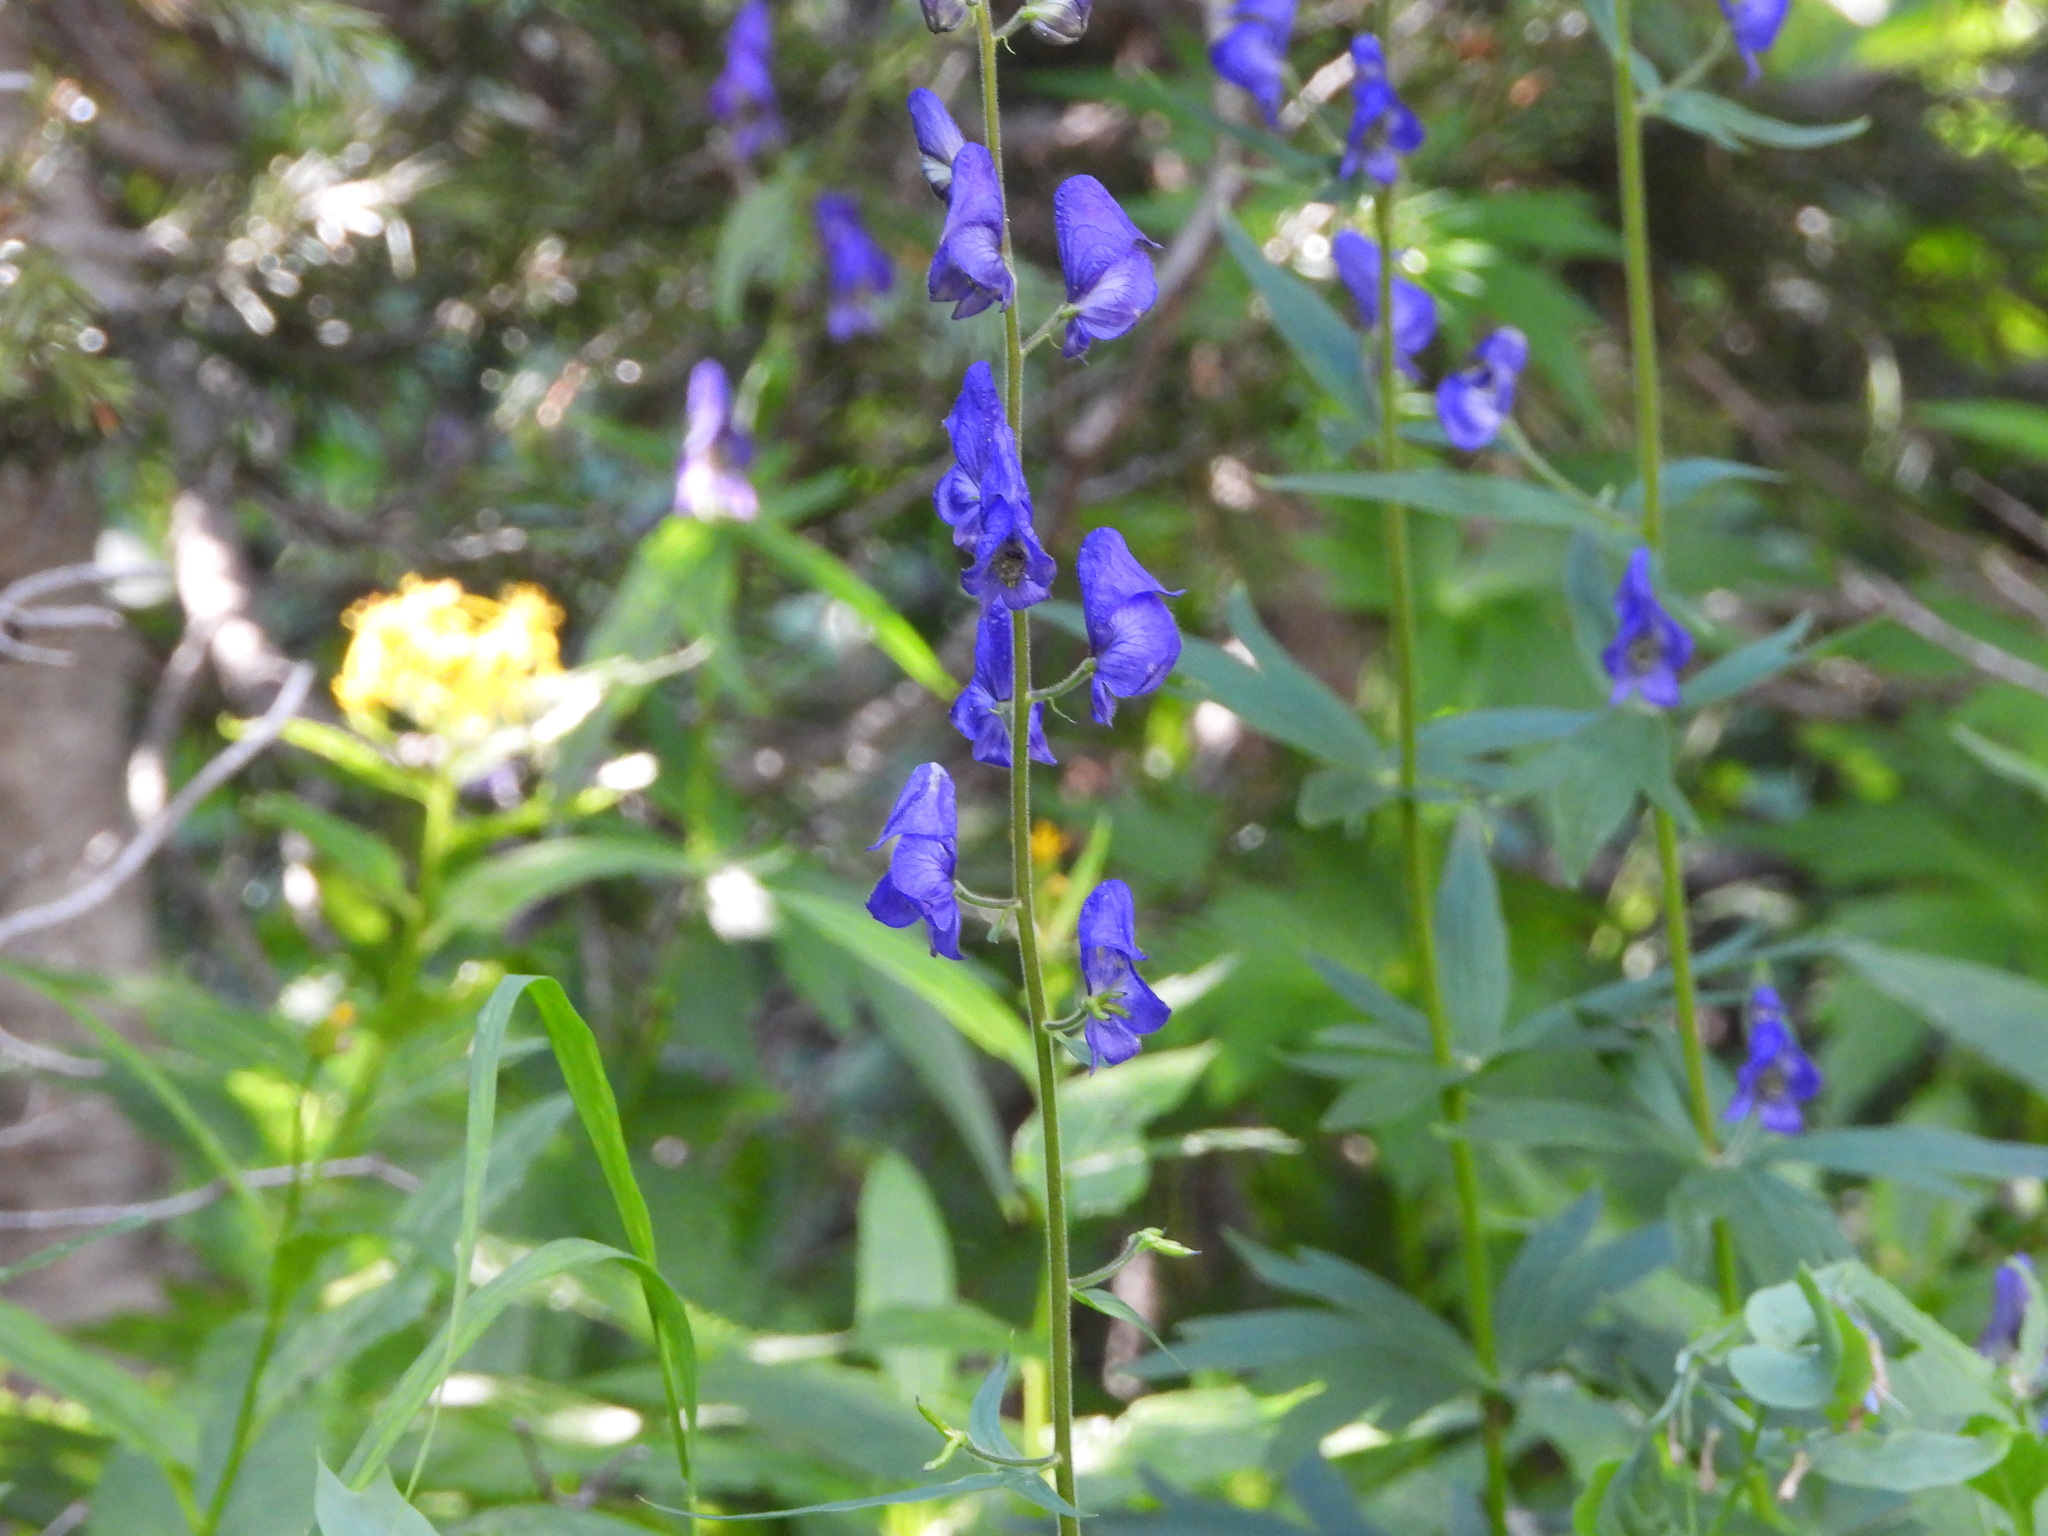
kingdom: Plantae
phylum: Tracheophyta
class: Magnoliopsida
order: Ranunculales
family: Ranunculaceae
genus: Aconitum
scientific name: Aconitum columbianum
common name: Columbia aconite
